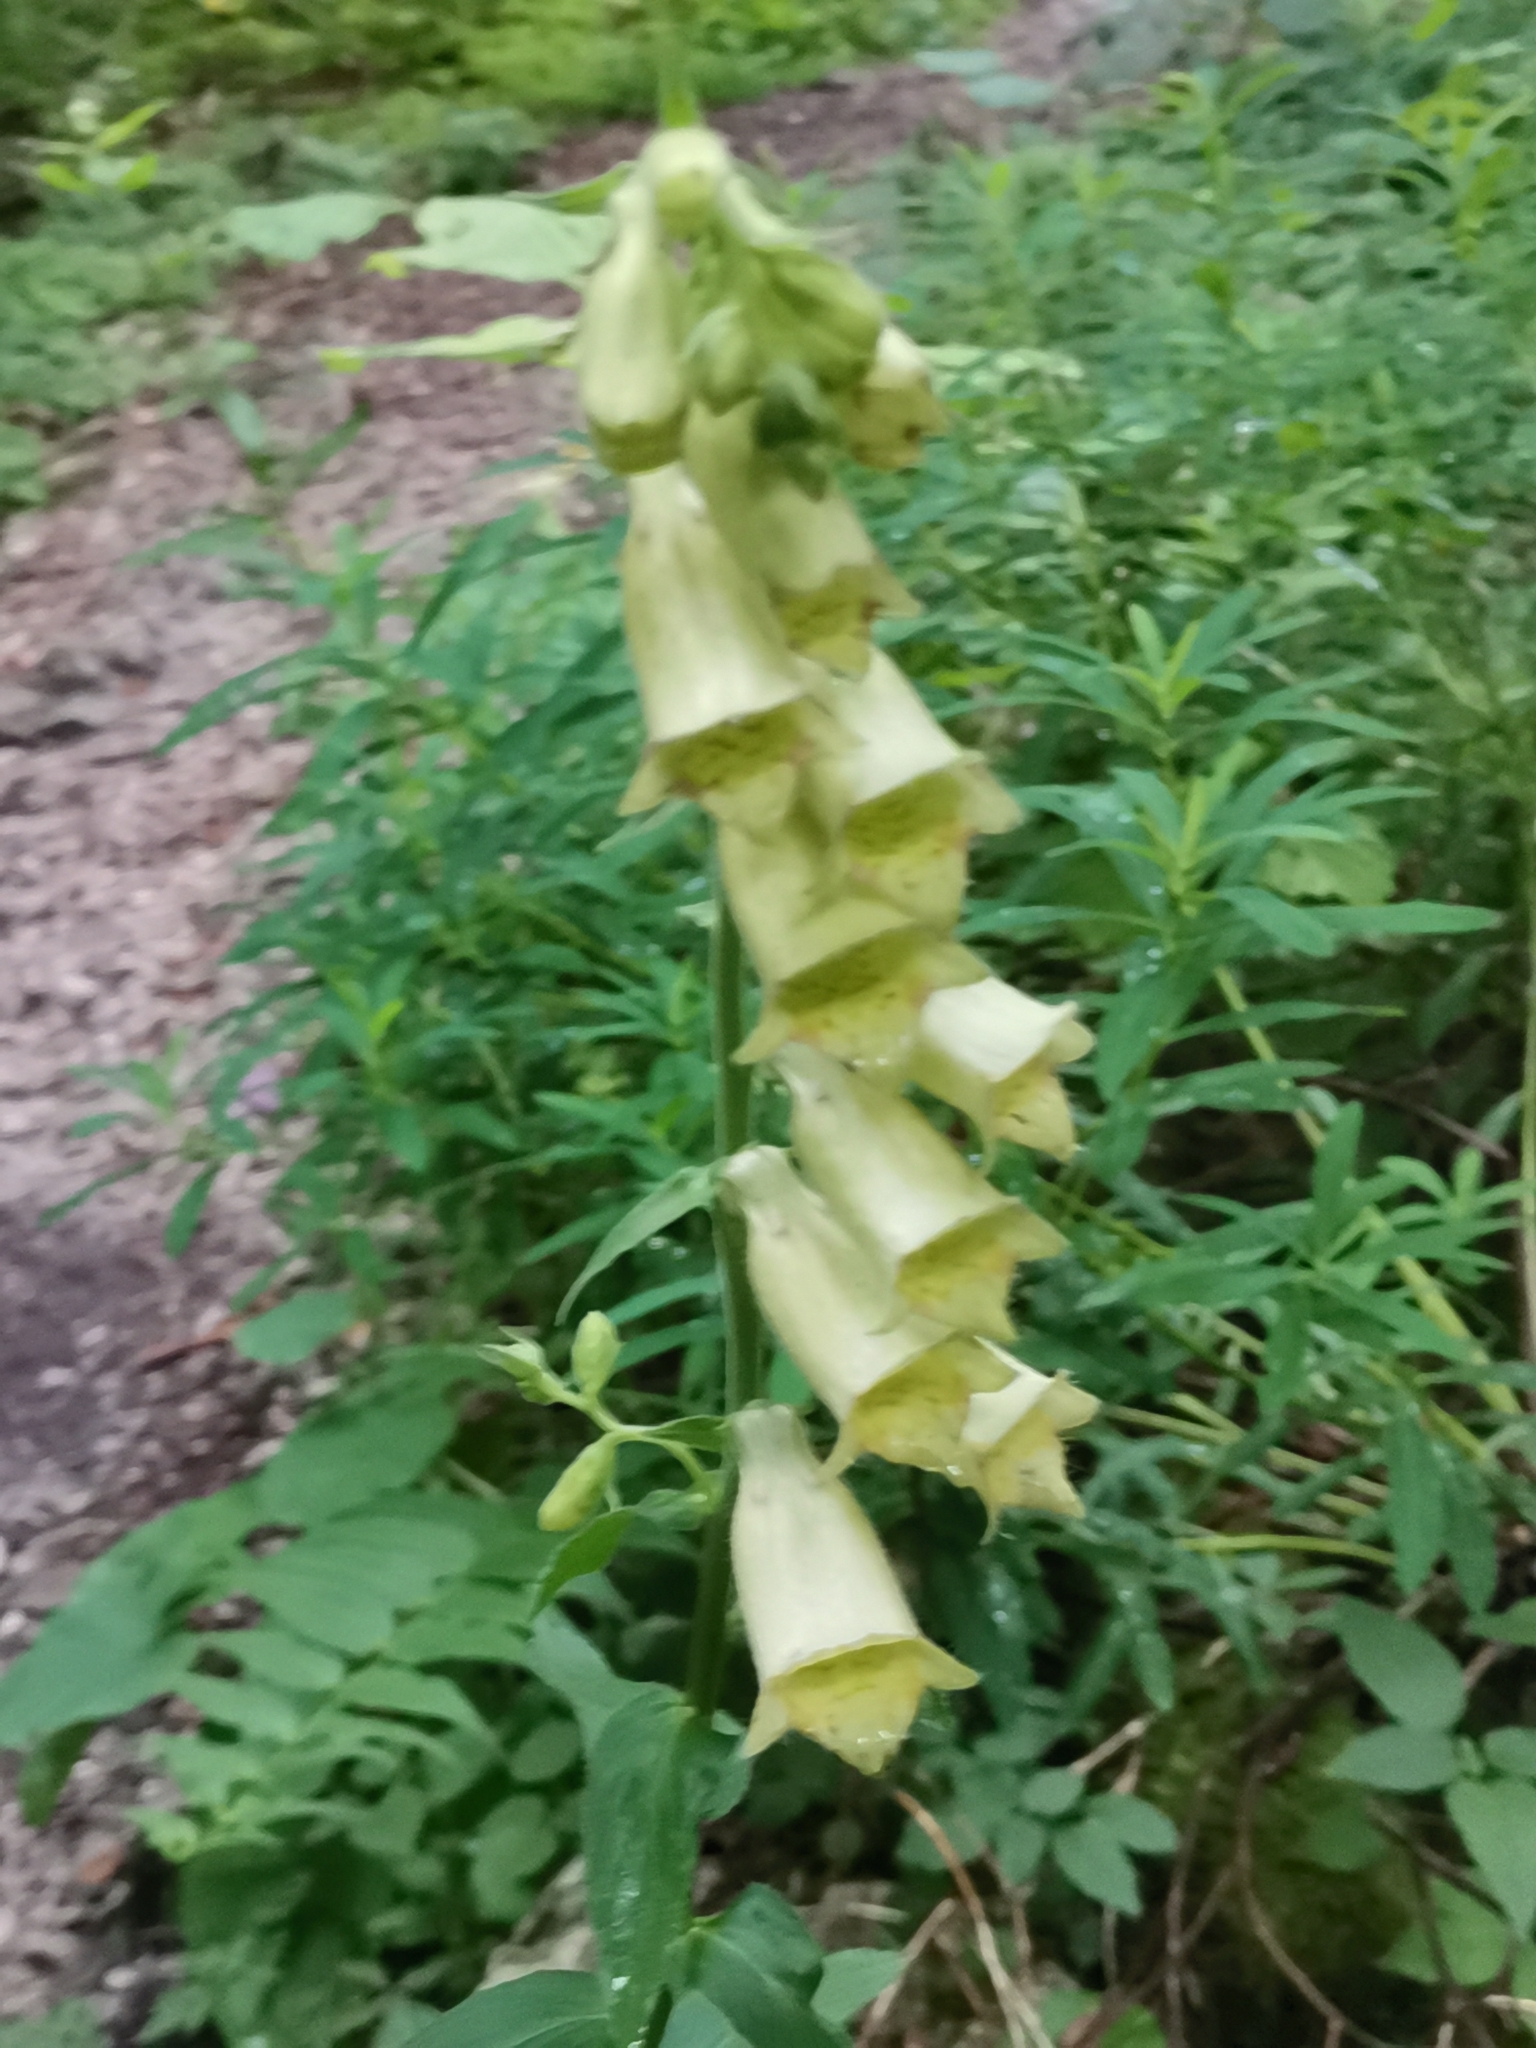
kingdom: Plantae
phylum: Tracheophyta
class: Magnoliopsida
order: Lamiales
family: Plantaginaceae
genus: Digitalis
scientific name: Digitalis grandiflora
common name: Yellow foxglove
